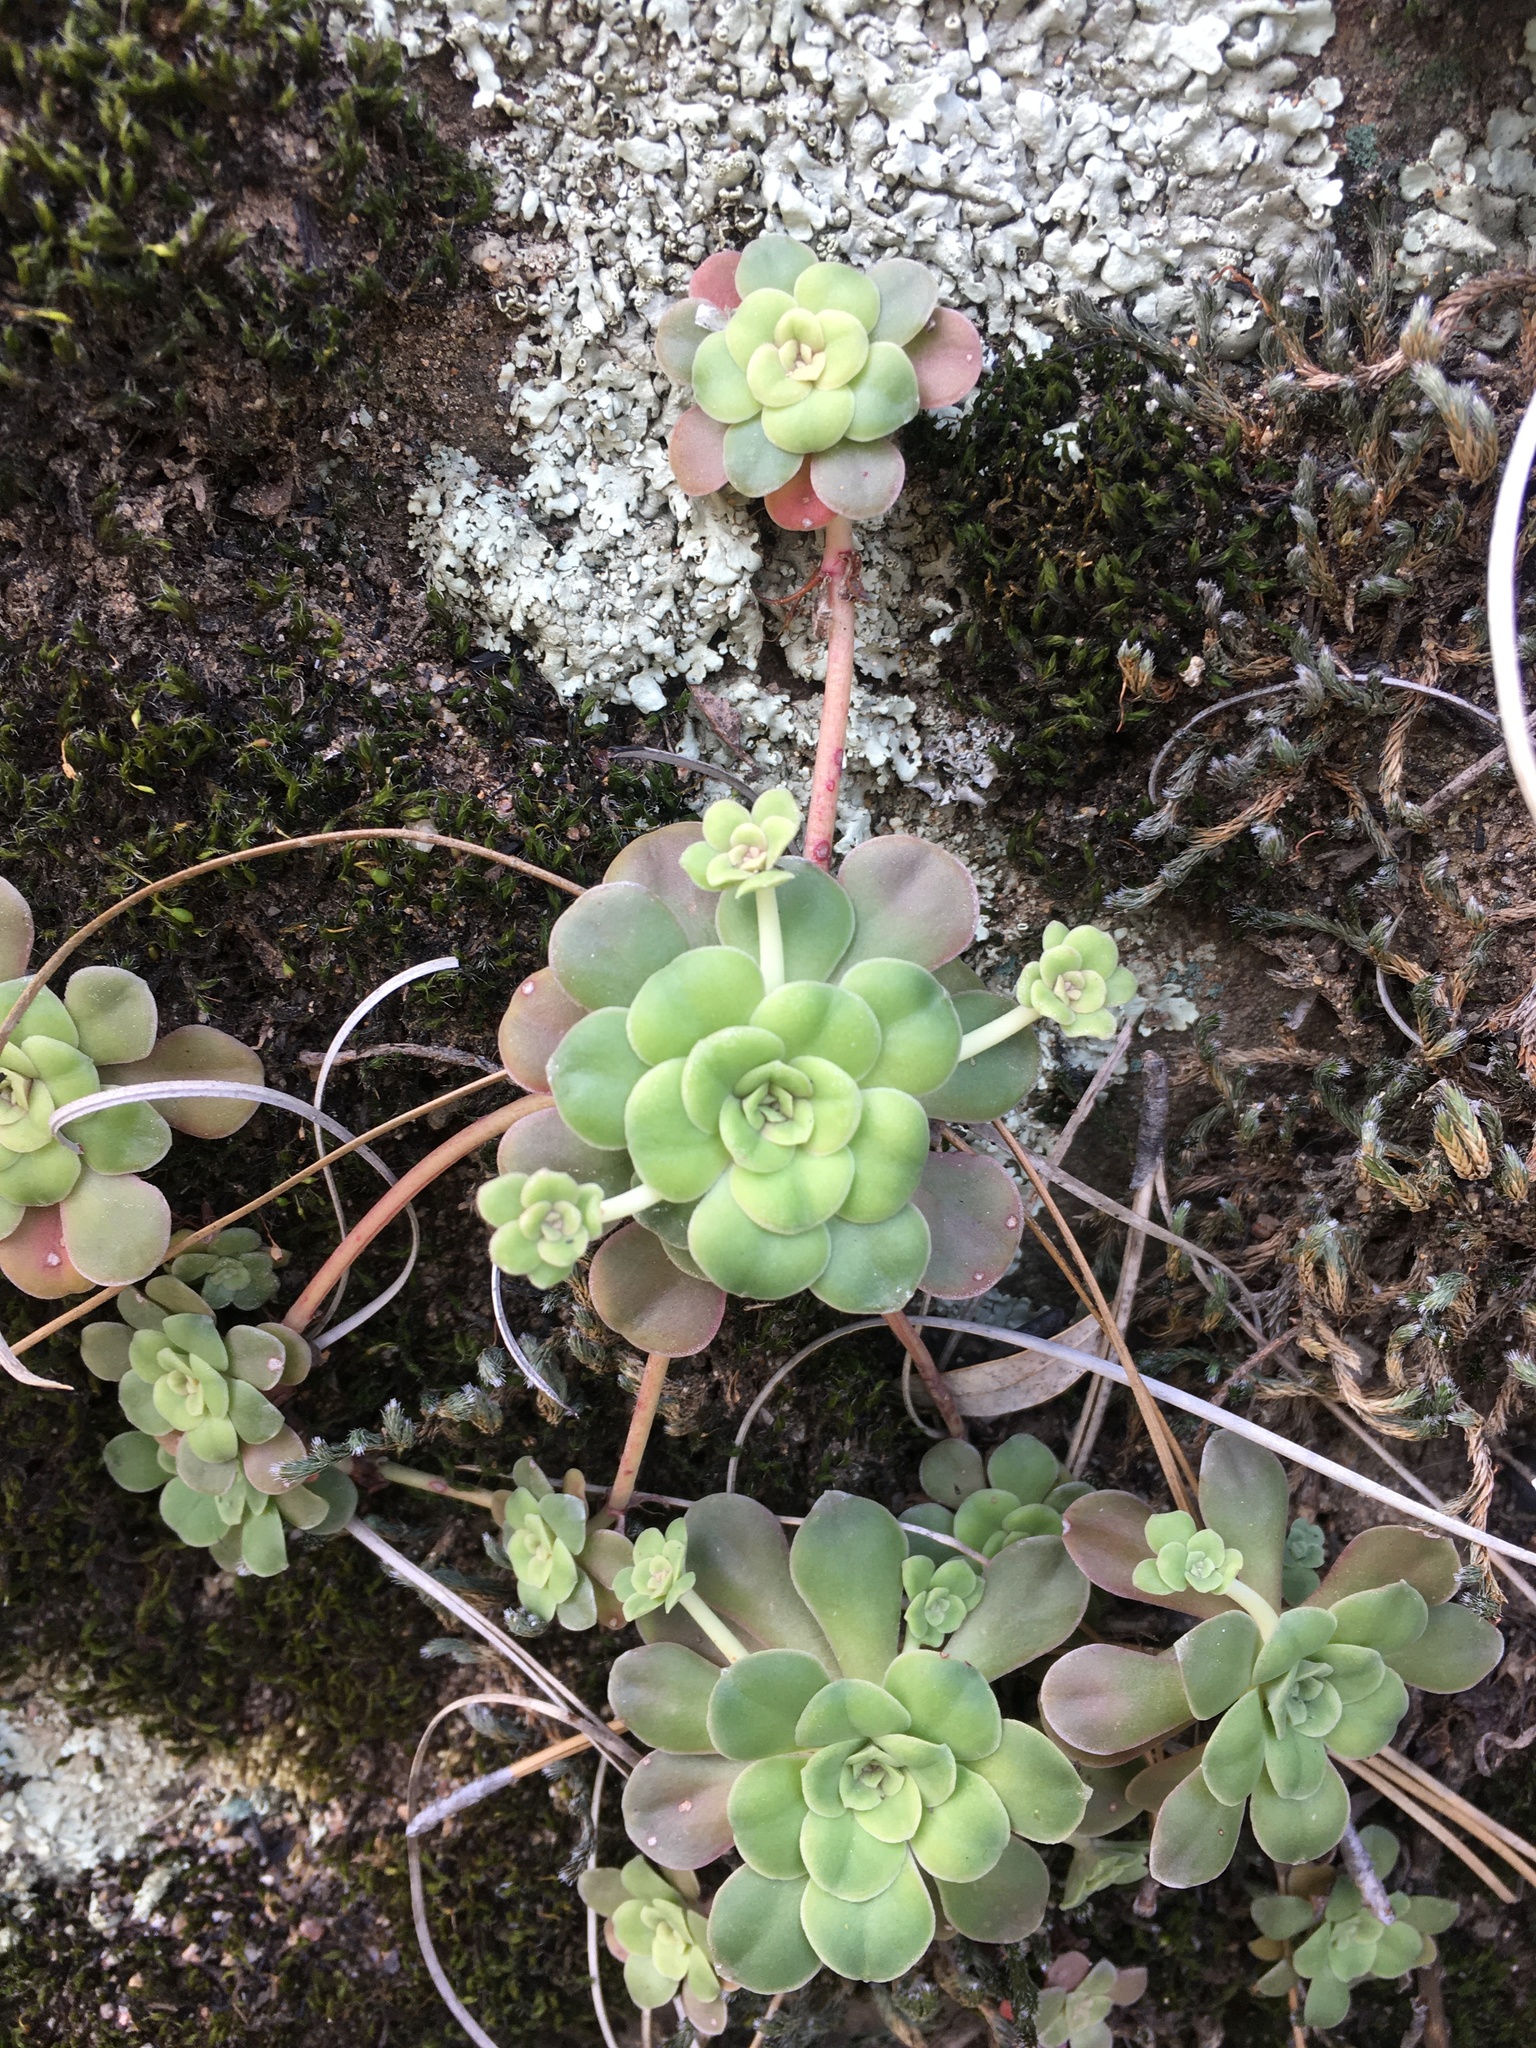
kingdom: Plantae
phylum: Tracheophyta
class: Magnoliopsida
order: Saxifragales
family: Crassulaceae
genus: Sedum
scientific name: Sedum spathulifolium
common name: Colorado stonecrop
